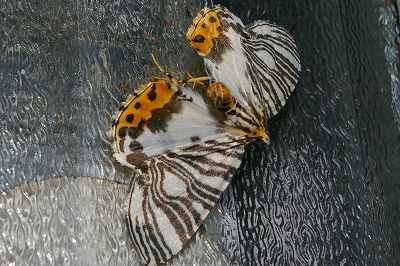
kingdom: Animalia
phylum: Arthropoda
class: Insecta
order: Lepidoptera
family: Geometridae
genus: Callabraxas
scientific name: Callabraxas compositata
